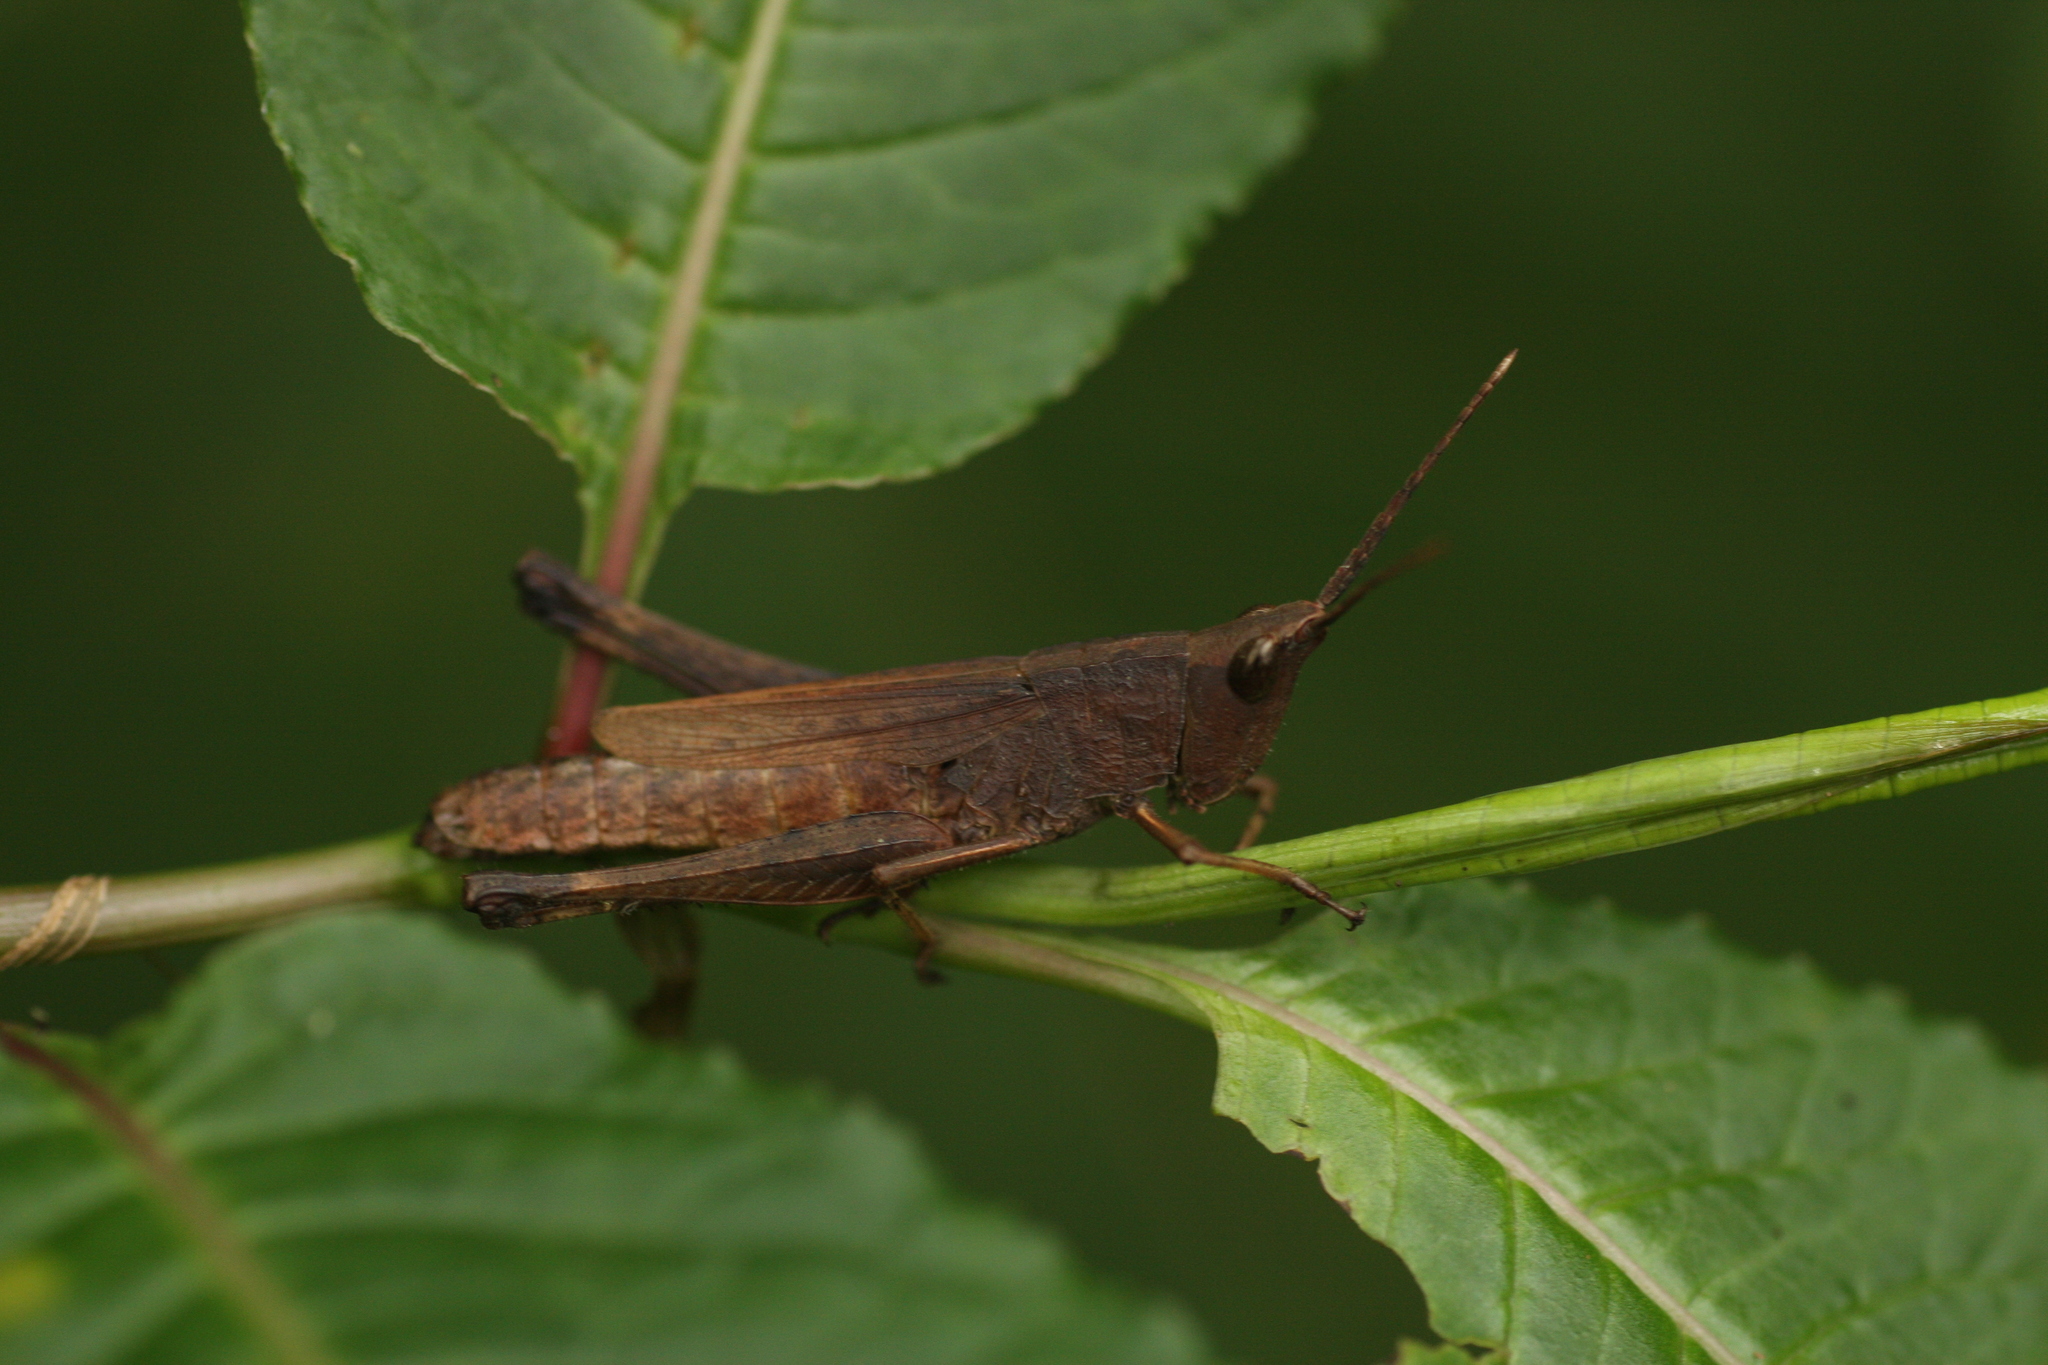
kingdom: Animalia
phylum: Arthropoda
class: Insecta
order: Orthoptera
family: Acrididae
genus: Phlaeoba
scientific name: Phlaeoba angustidorsis
